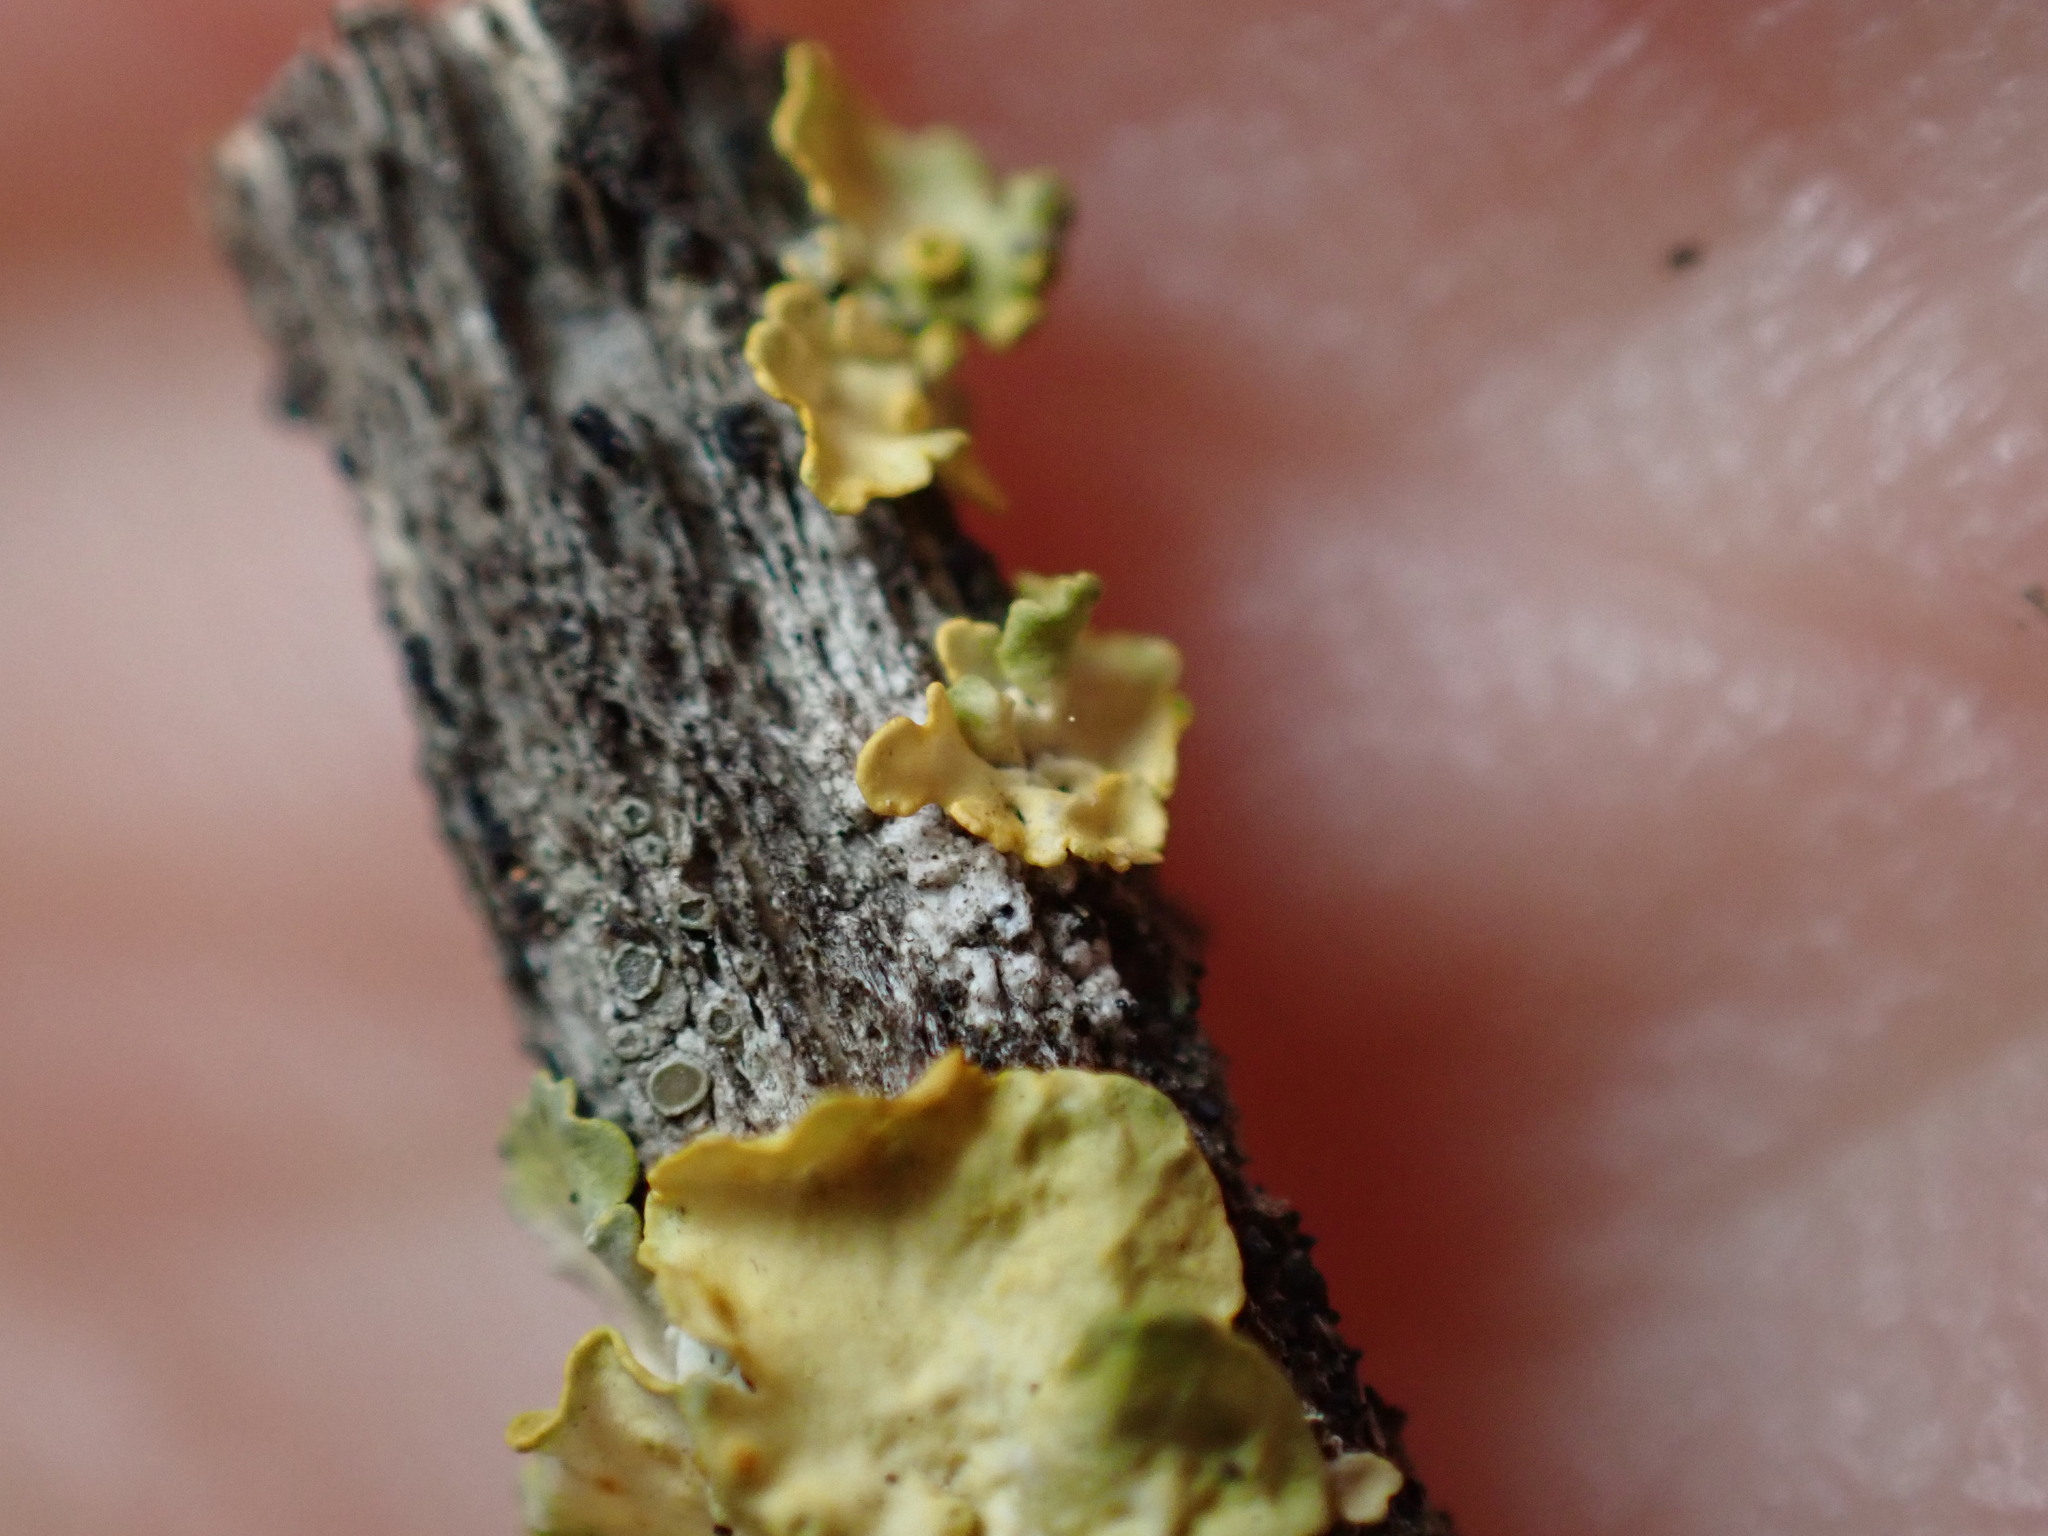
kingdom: Fungi
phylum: Ascomycota
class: Lecanoromycetes
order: Teloschistales
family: Teloschistaceae
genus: Xanthoria
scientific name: Xanthoria parietina
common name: Common orange lichen
